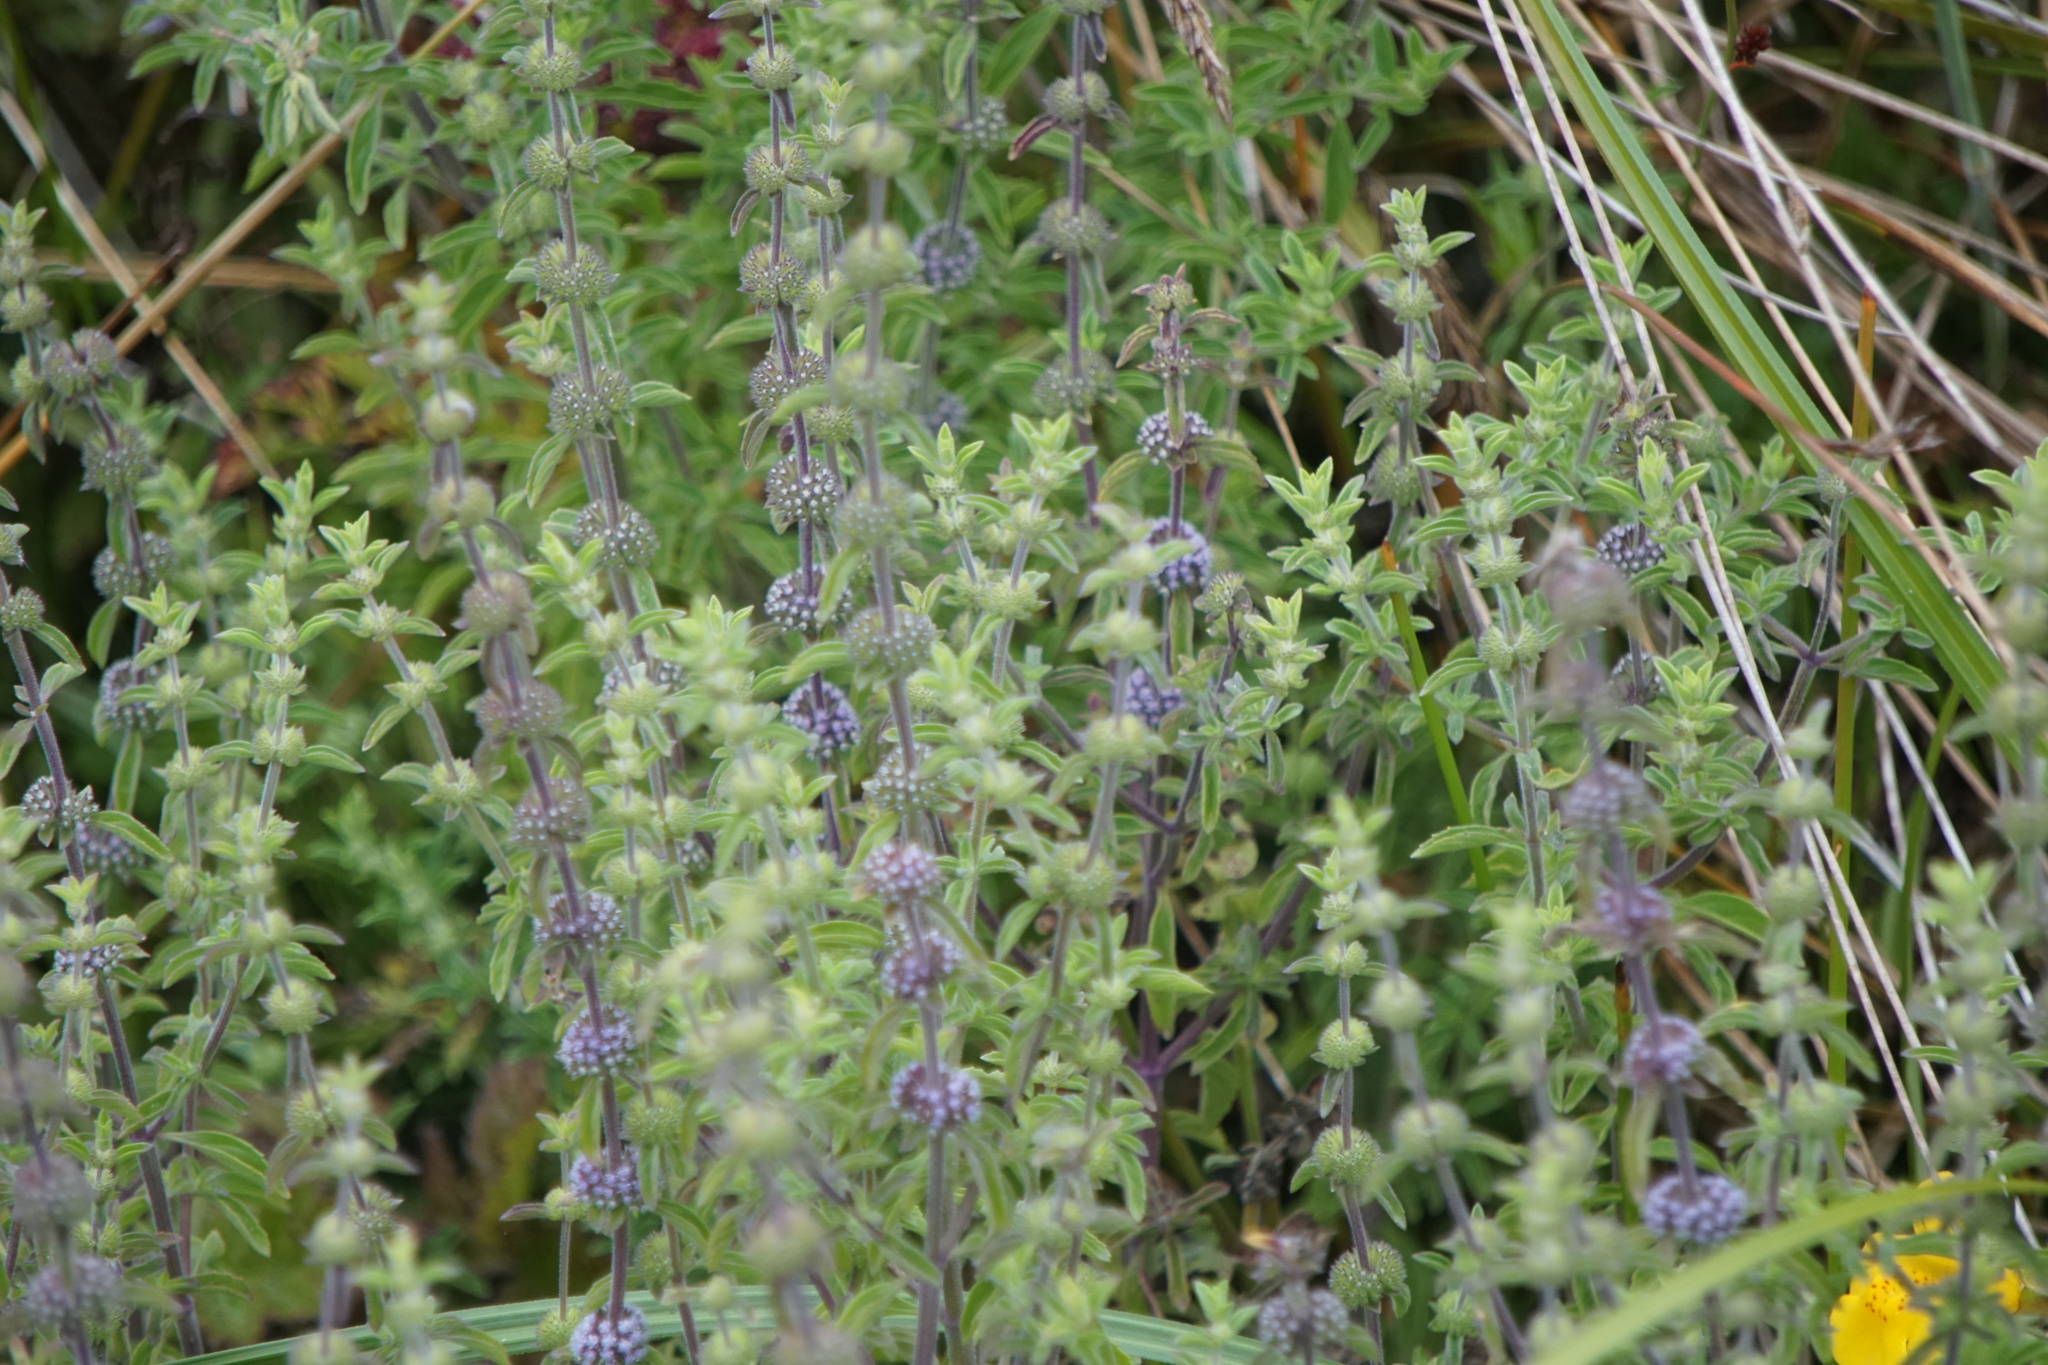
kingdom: Plantae
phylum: Tracheophyta
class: Magnoliopsida
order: Lamiales
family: Lamiaceae
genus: Mentha
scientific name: Mentha pulegium
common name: Pennyroyal
